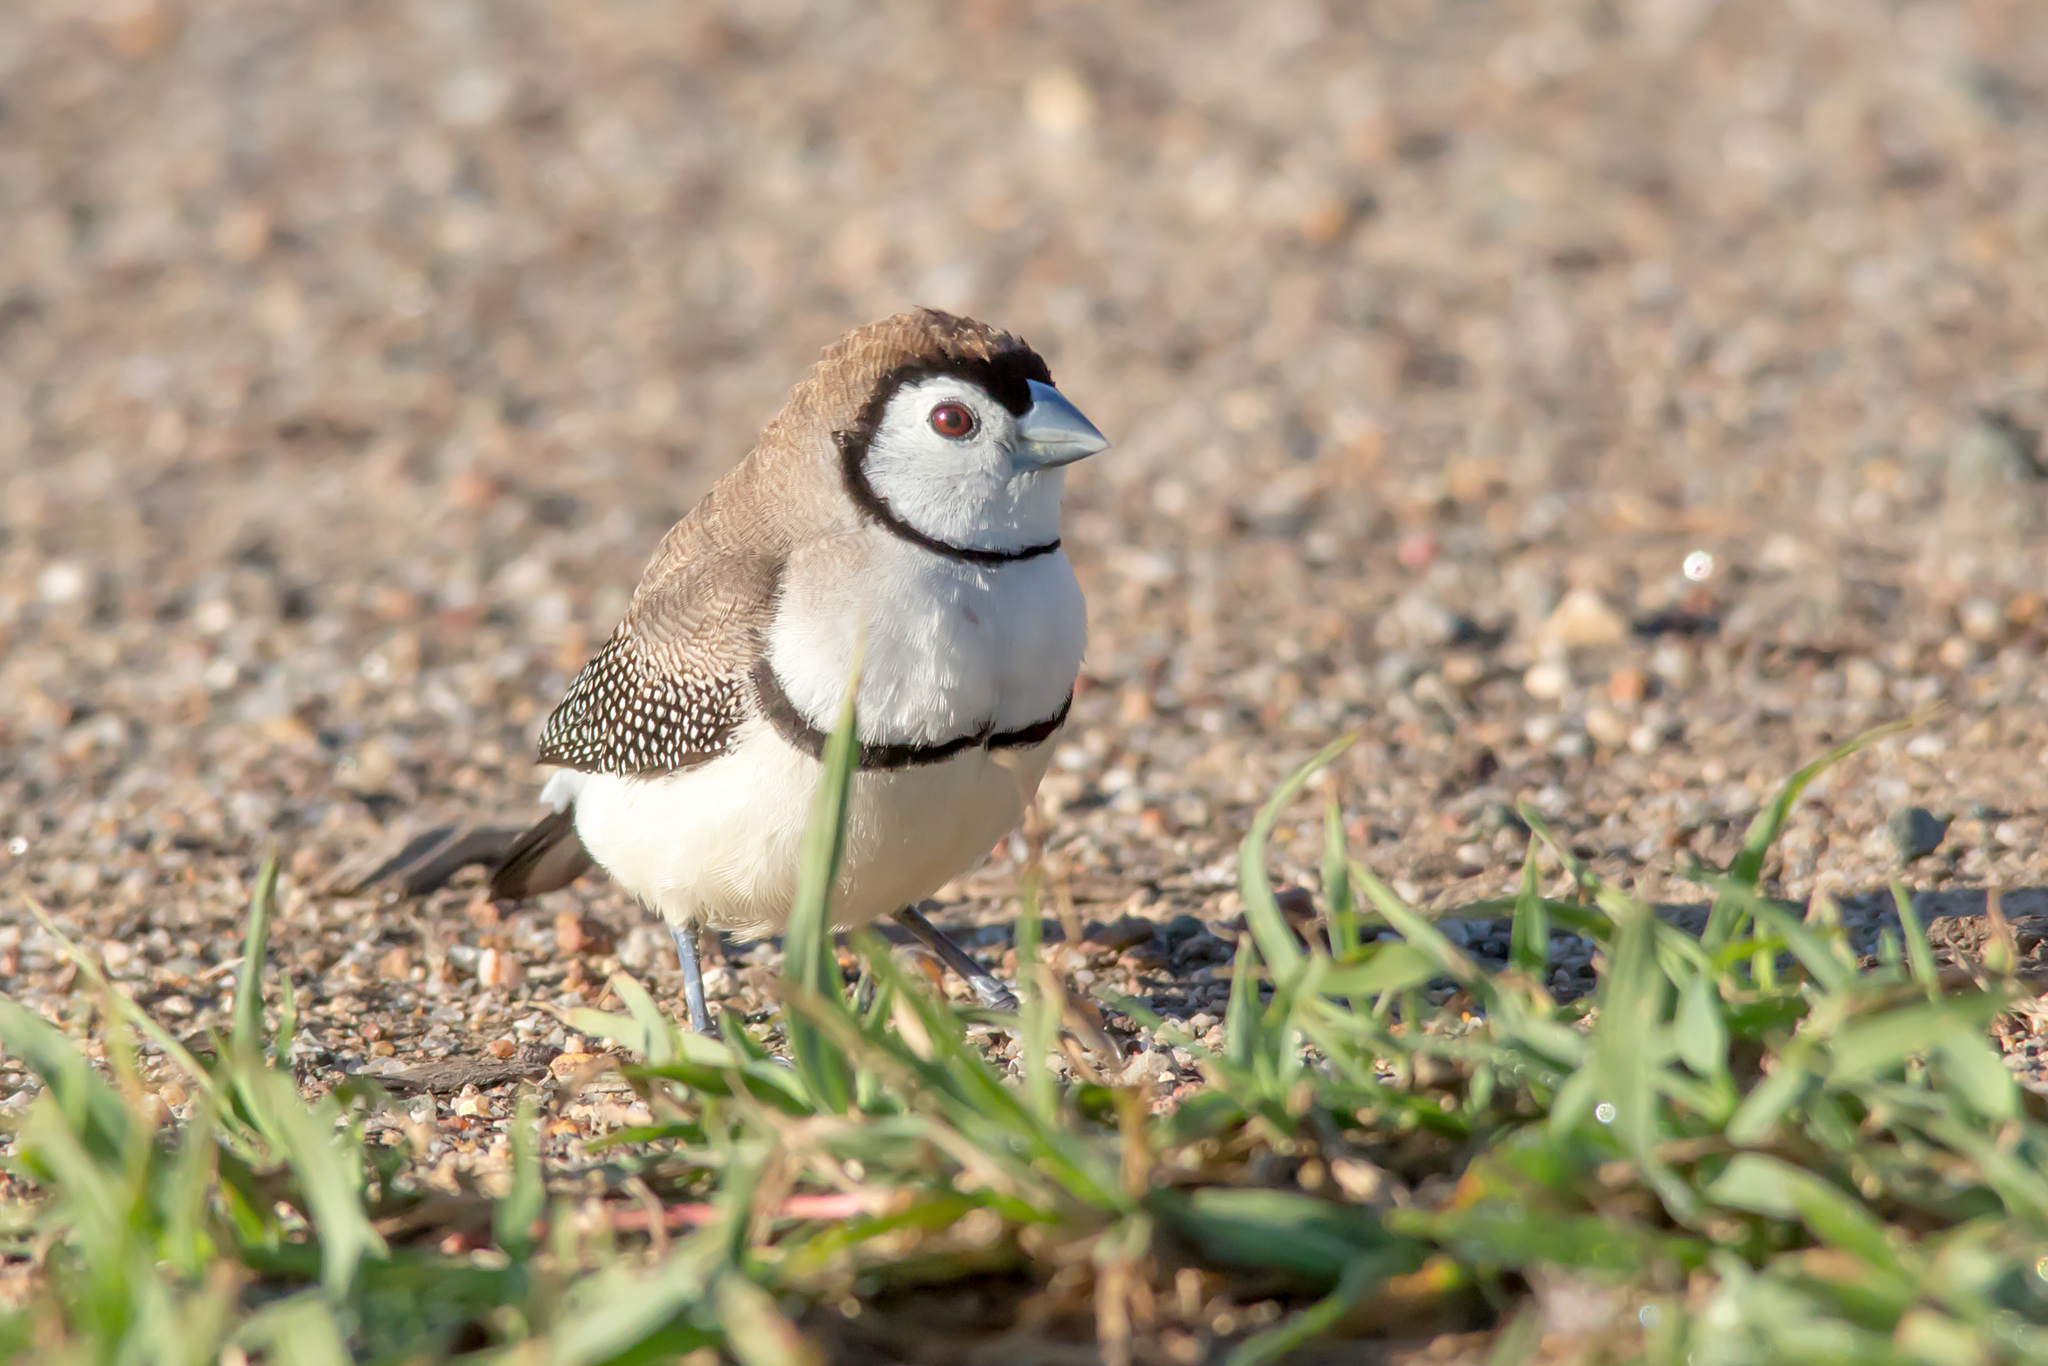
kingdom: Animalia
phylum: Chordata
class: Aves
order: Passeriformes
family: Estrildidae
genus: Taeniopygia
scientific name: Taeniopygia bichenovii
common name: Double-barred finch
